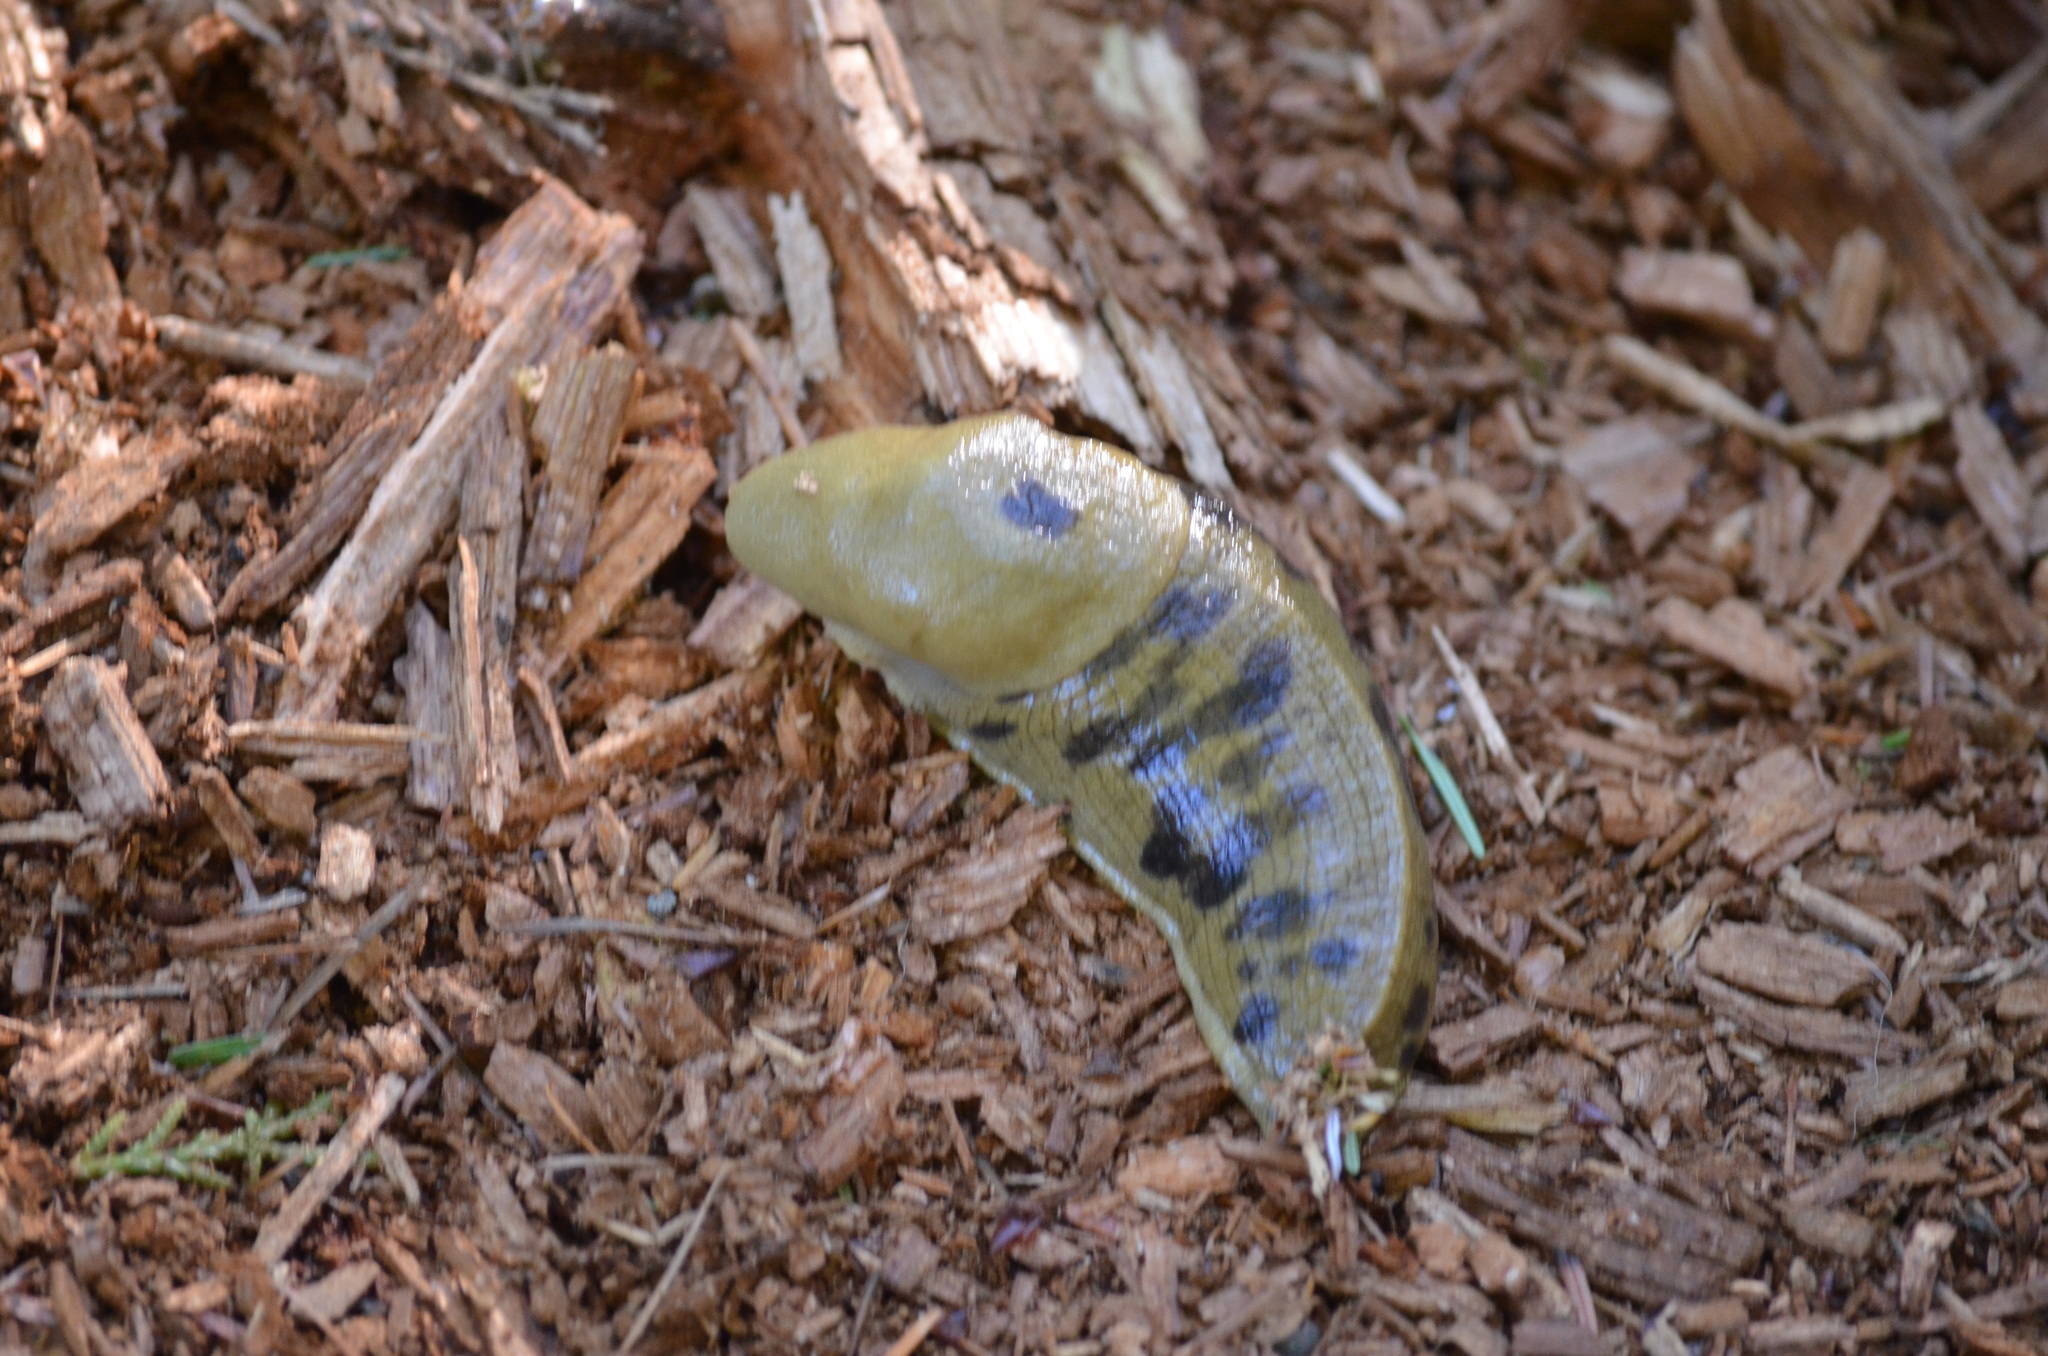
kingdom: Animalia
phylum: Mollusca
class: Gastropoda
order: Stylommatophora
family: Ariolimacidae
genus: Ariolimax
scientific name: Ariolimax columbianus
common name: Pacific banana slug
